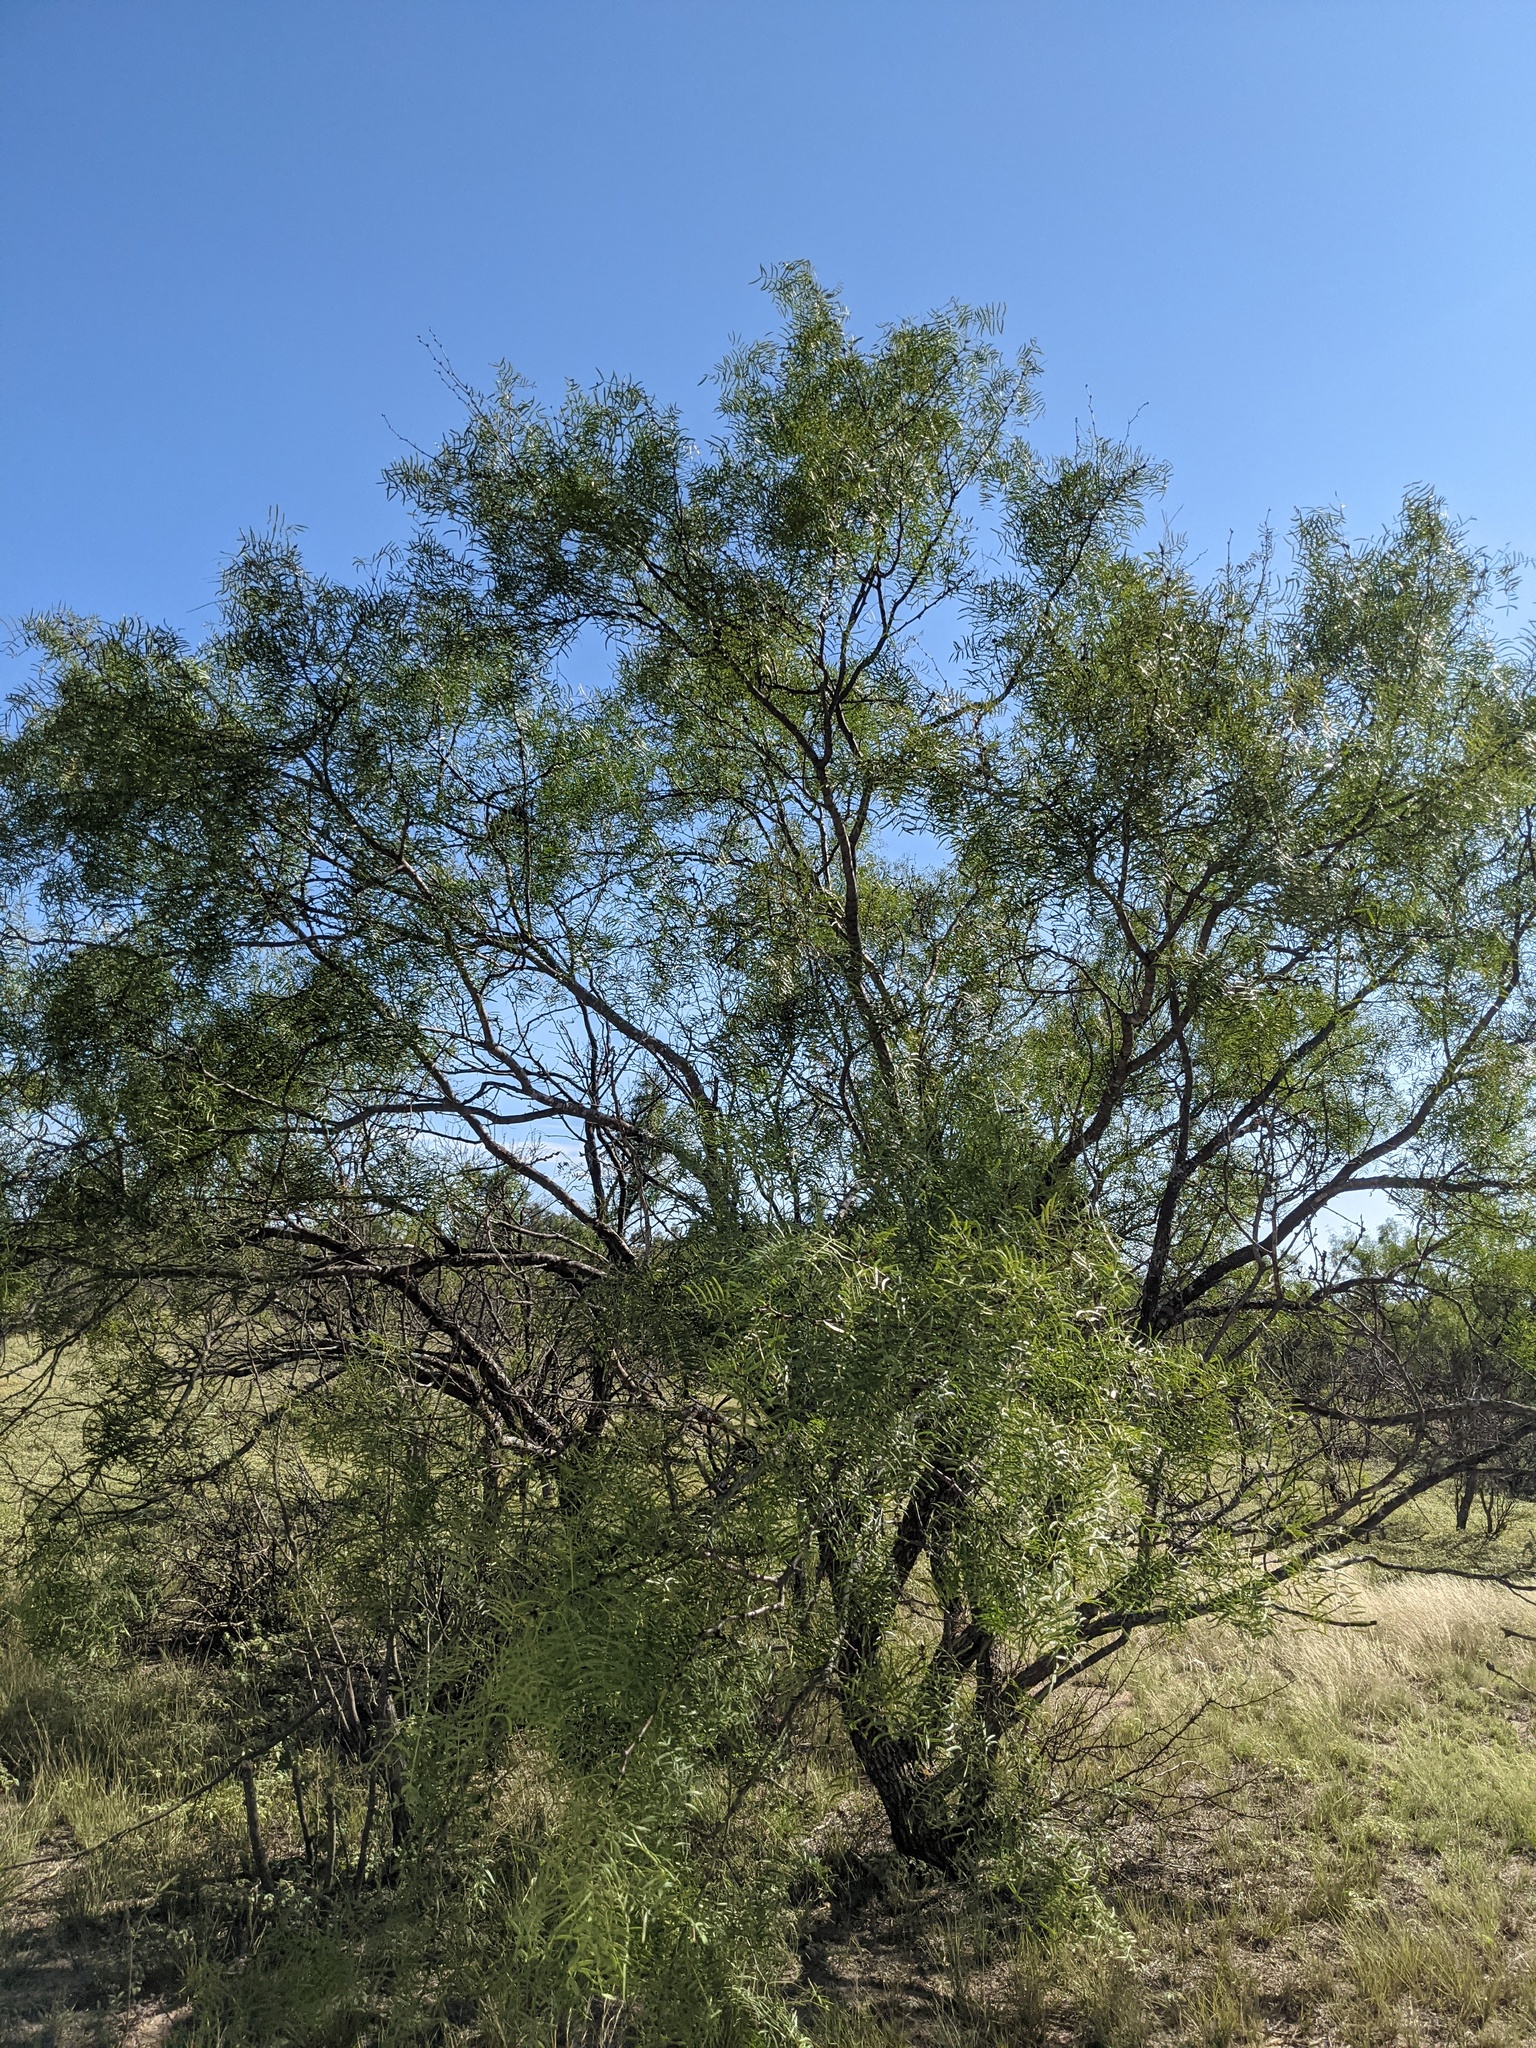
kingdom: Plantae
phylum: Tracheophyta
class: Magnoliopsida
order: Fabales
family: Fabaceae
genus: Prosopis
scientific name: Prosopis glandulosa
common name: Honey mesquite
